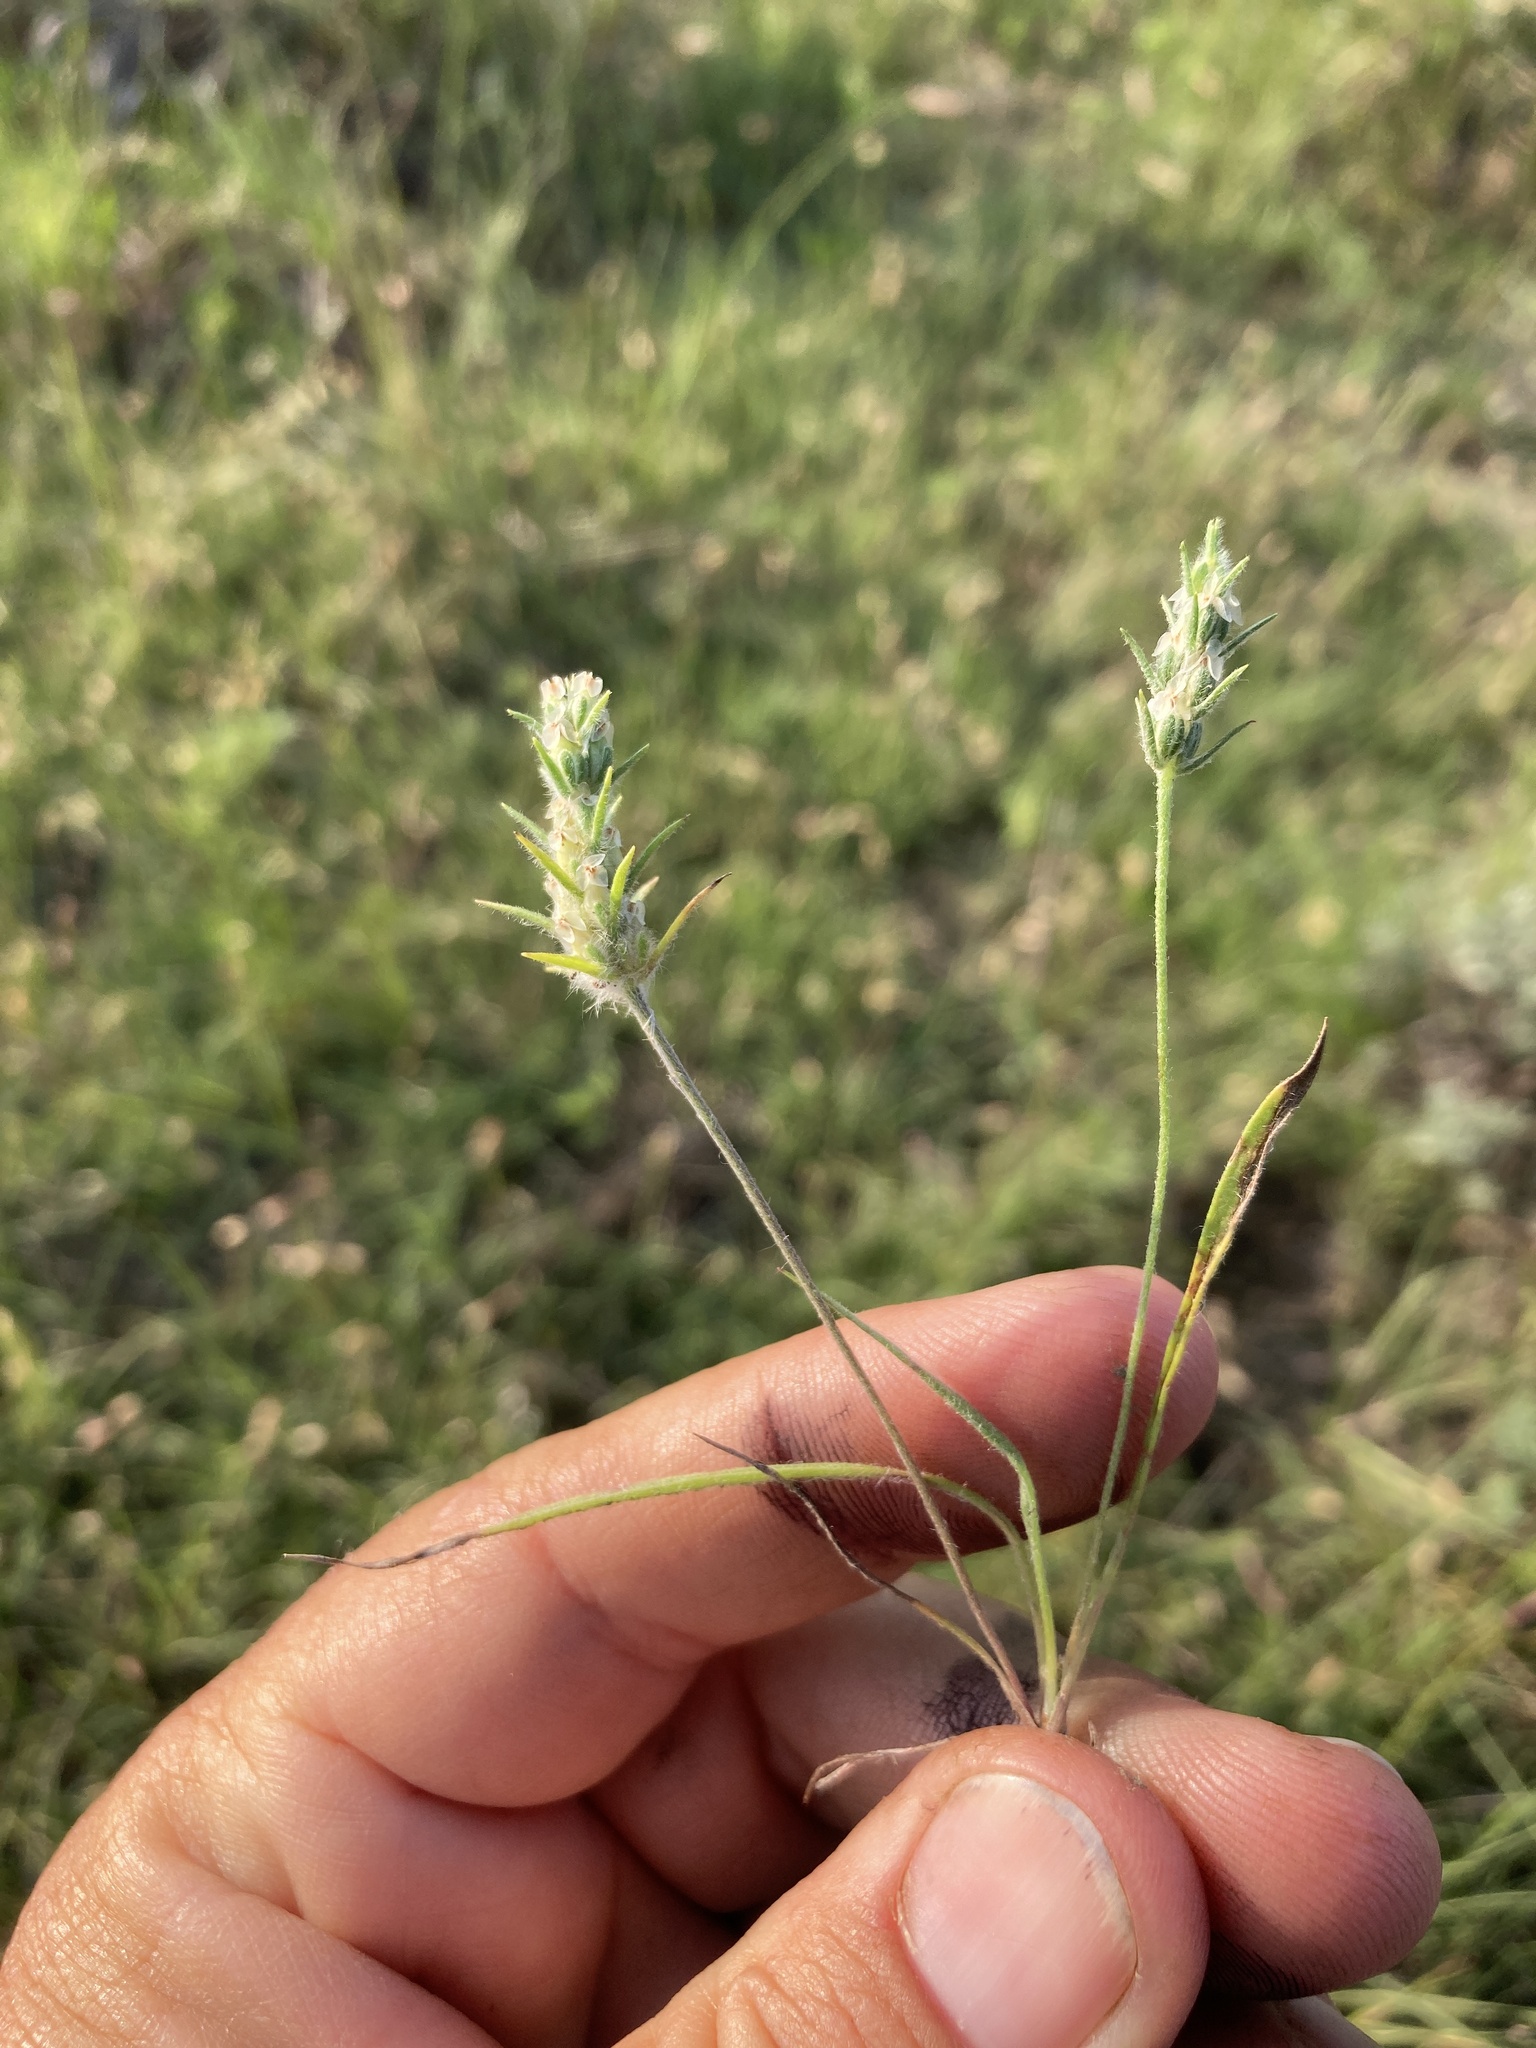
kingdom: Plantae
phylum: Tracheophyta
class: Magnoliopsida
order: Lamiales
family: Plantaginaceae
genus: Plantago
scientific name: Plantago patagonica
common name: Patagonia indian-wheat
